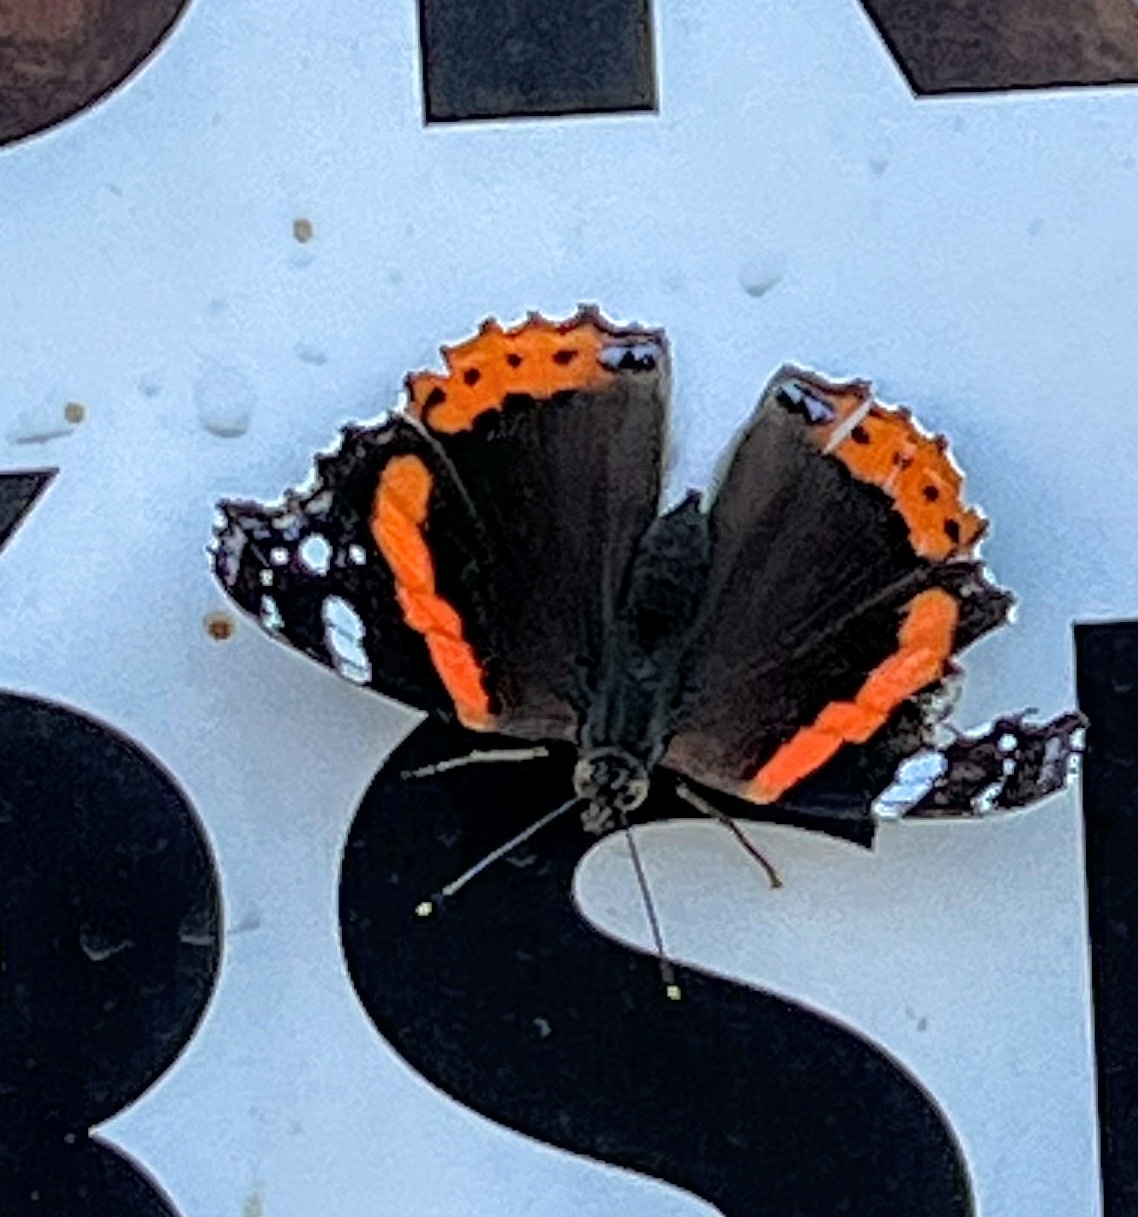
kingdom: Animalia
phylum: Arthropoda
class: Insecta
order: Lepidoptera
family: Nymphalidae
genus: Vanessa
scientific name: Vanessa atalanta
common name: Red admiral
